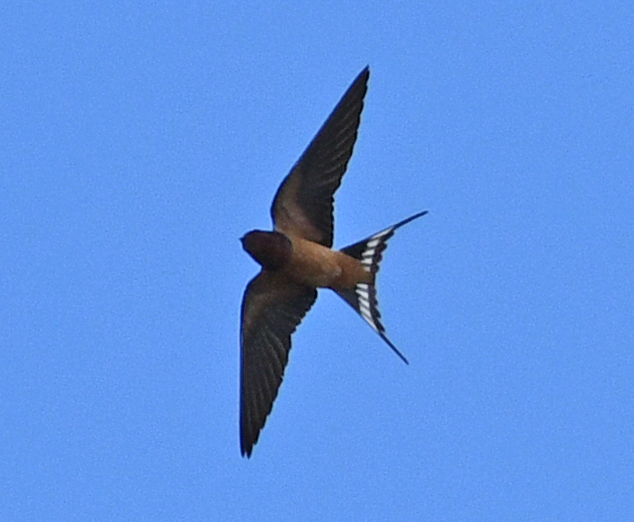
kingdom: Animalia
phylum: Chordata
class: Aves
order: Passeriformes
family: Hirundinidae
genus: Hirundo
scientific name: Hirundo rustica
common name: Barn swallow
